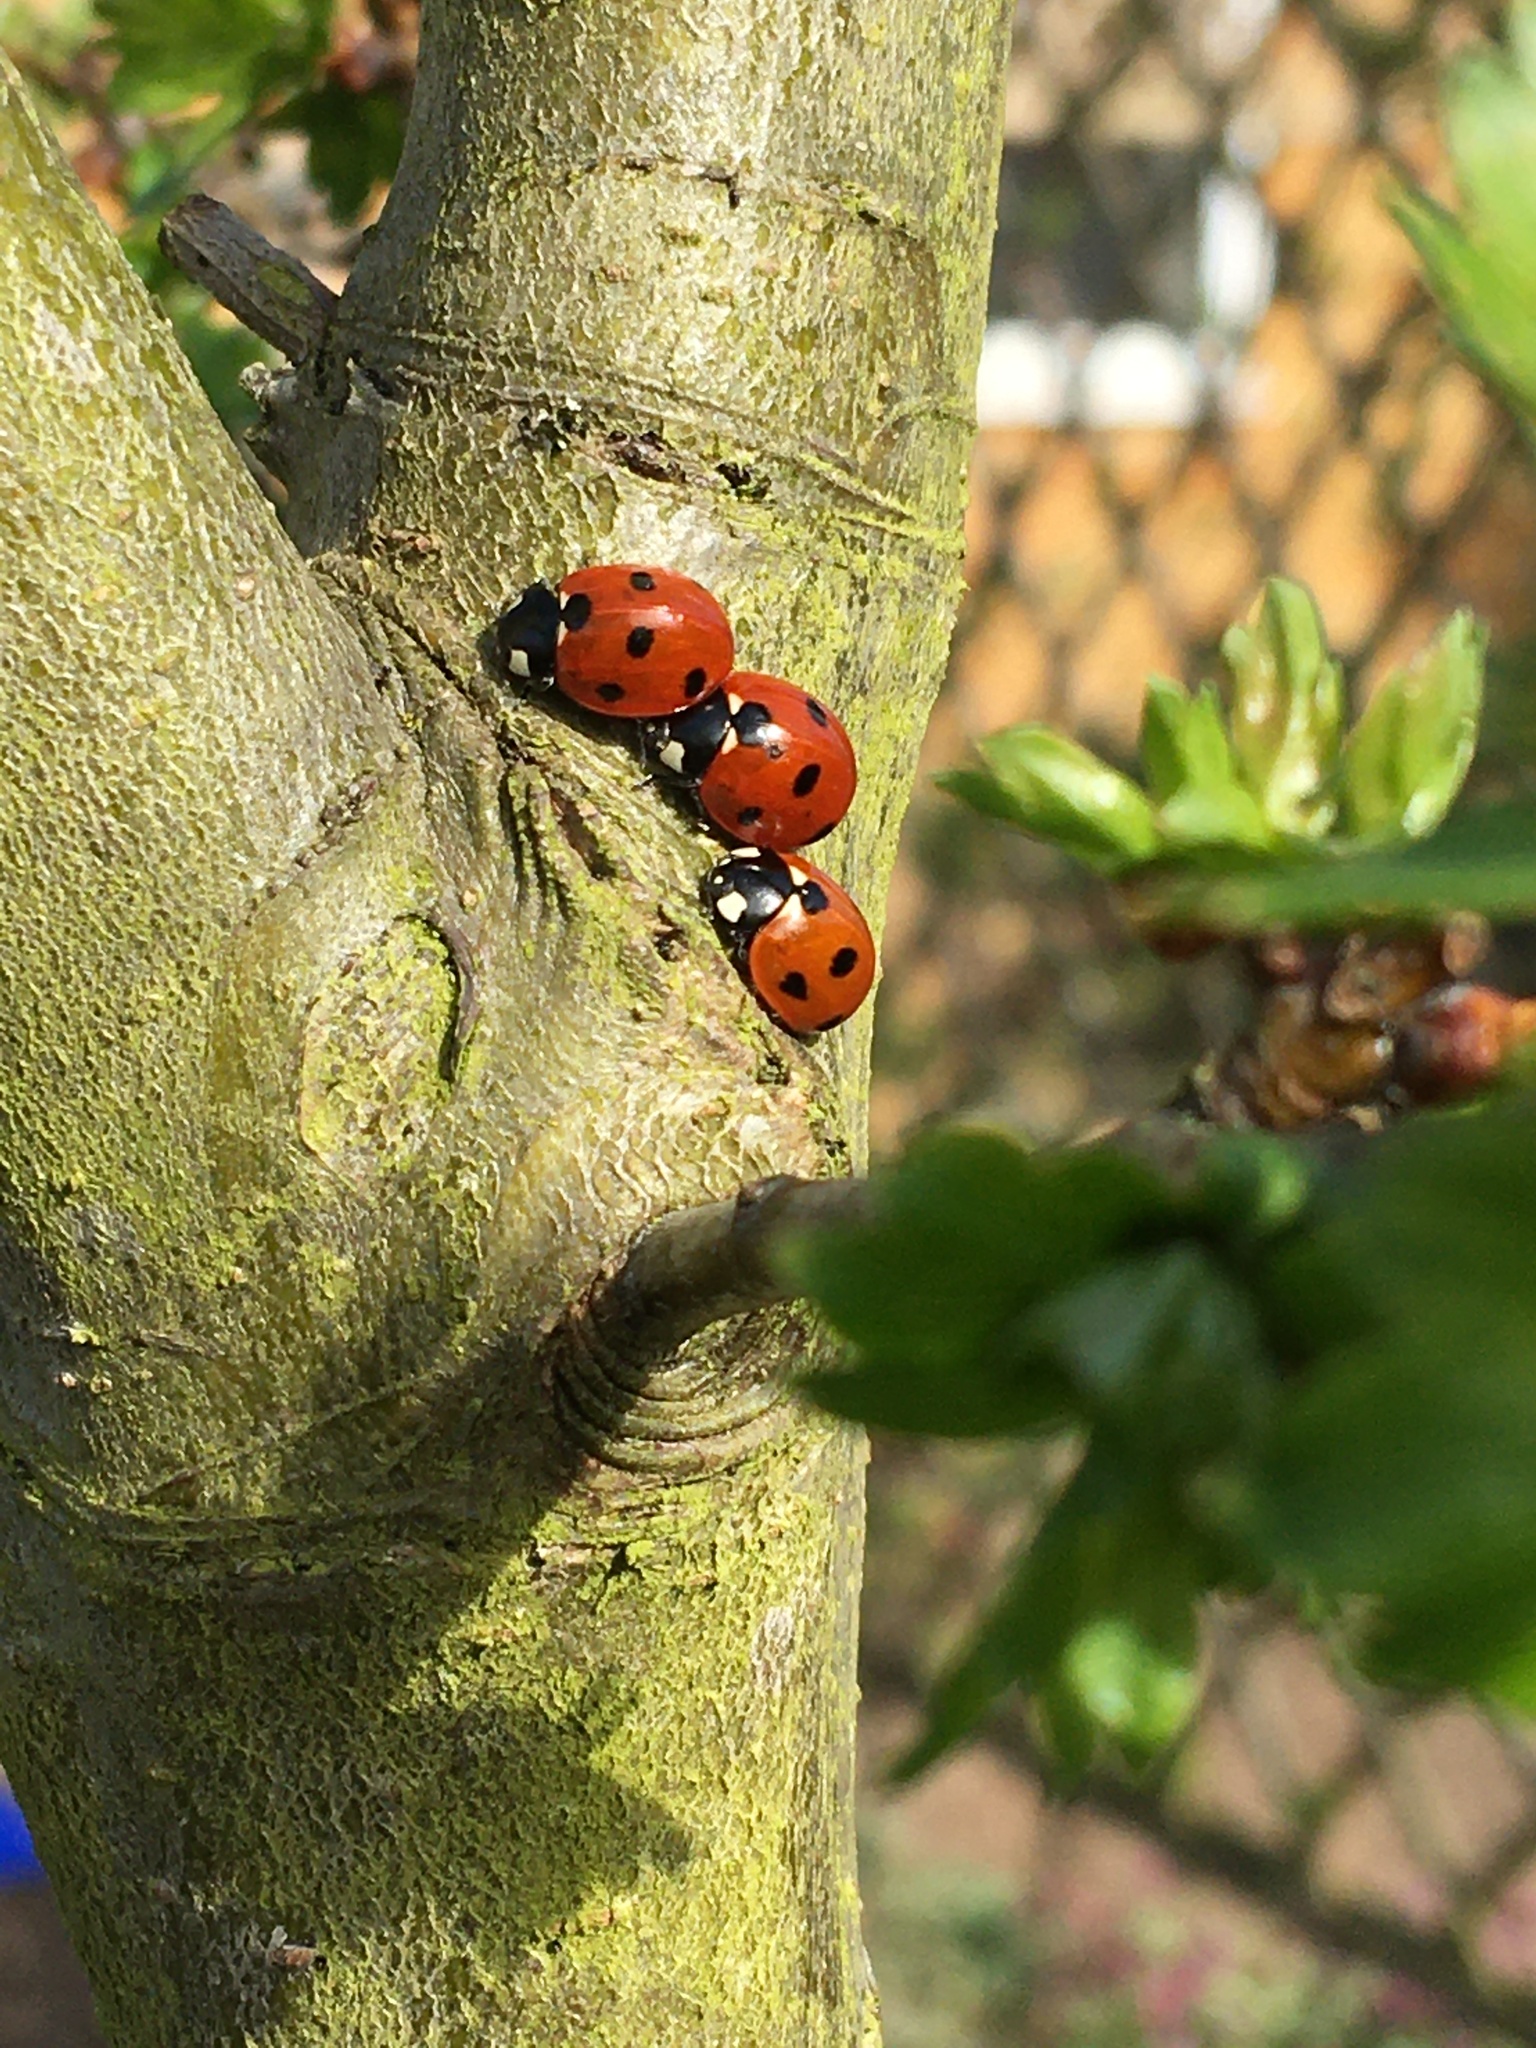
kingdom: Animalia
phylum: Arthropoda
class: Insecta
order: Coleoptera
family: Coccinellidae
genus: Coccinella
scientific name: Coccinella septempunctata
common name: Sevenspotted lady beetle
